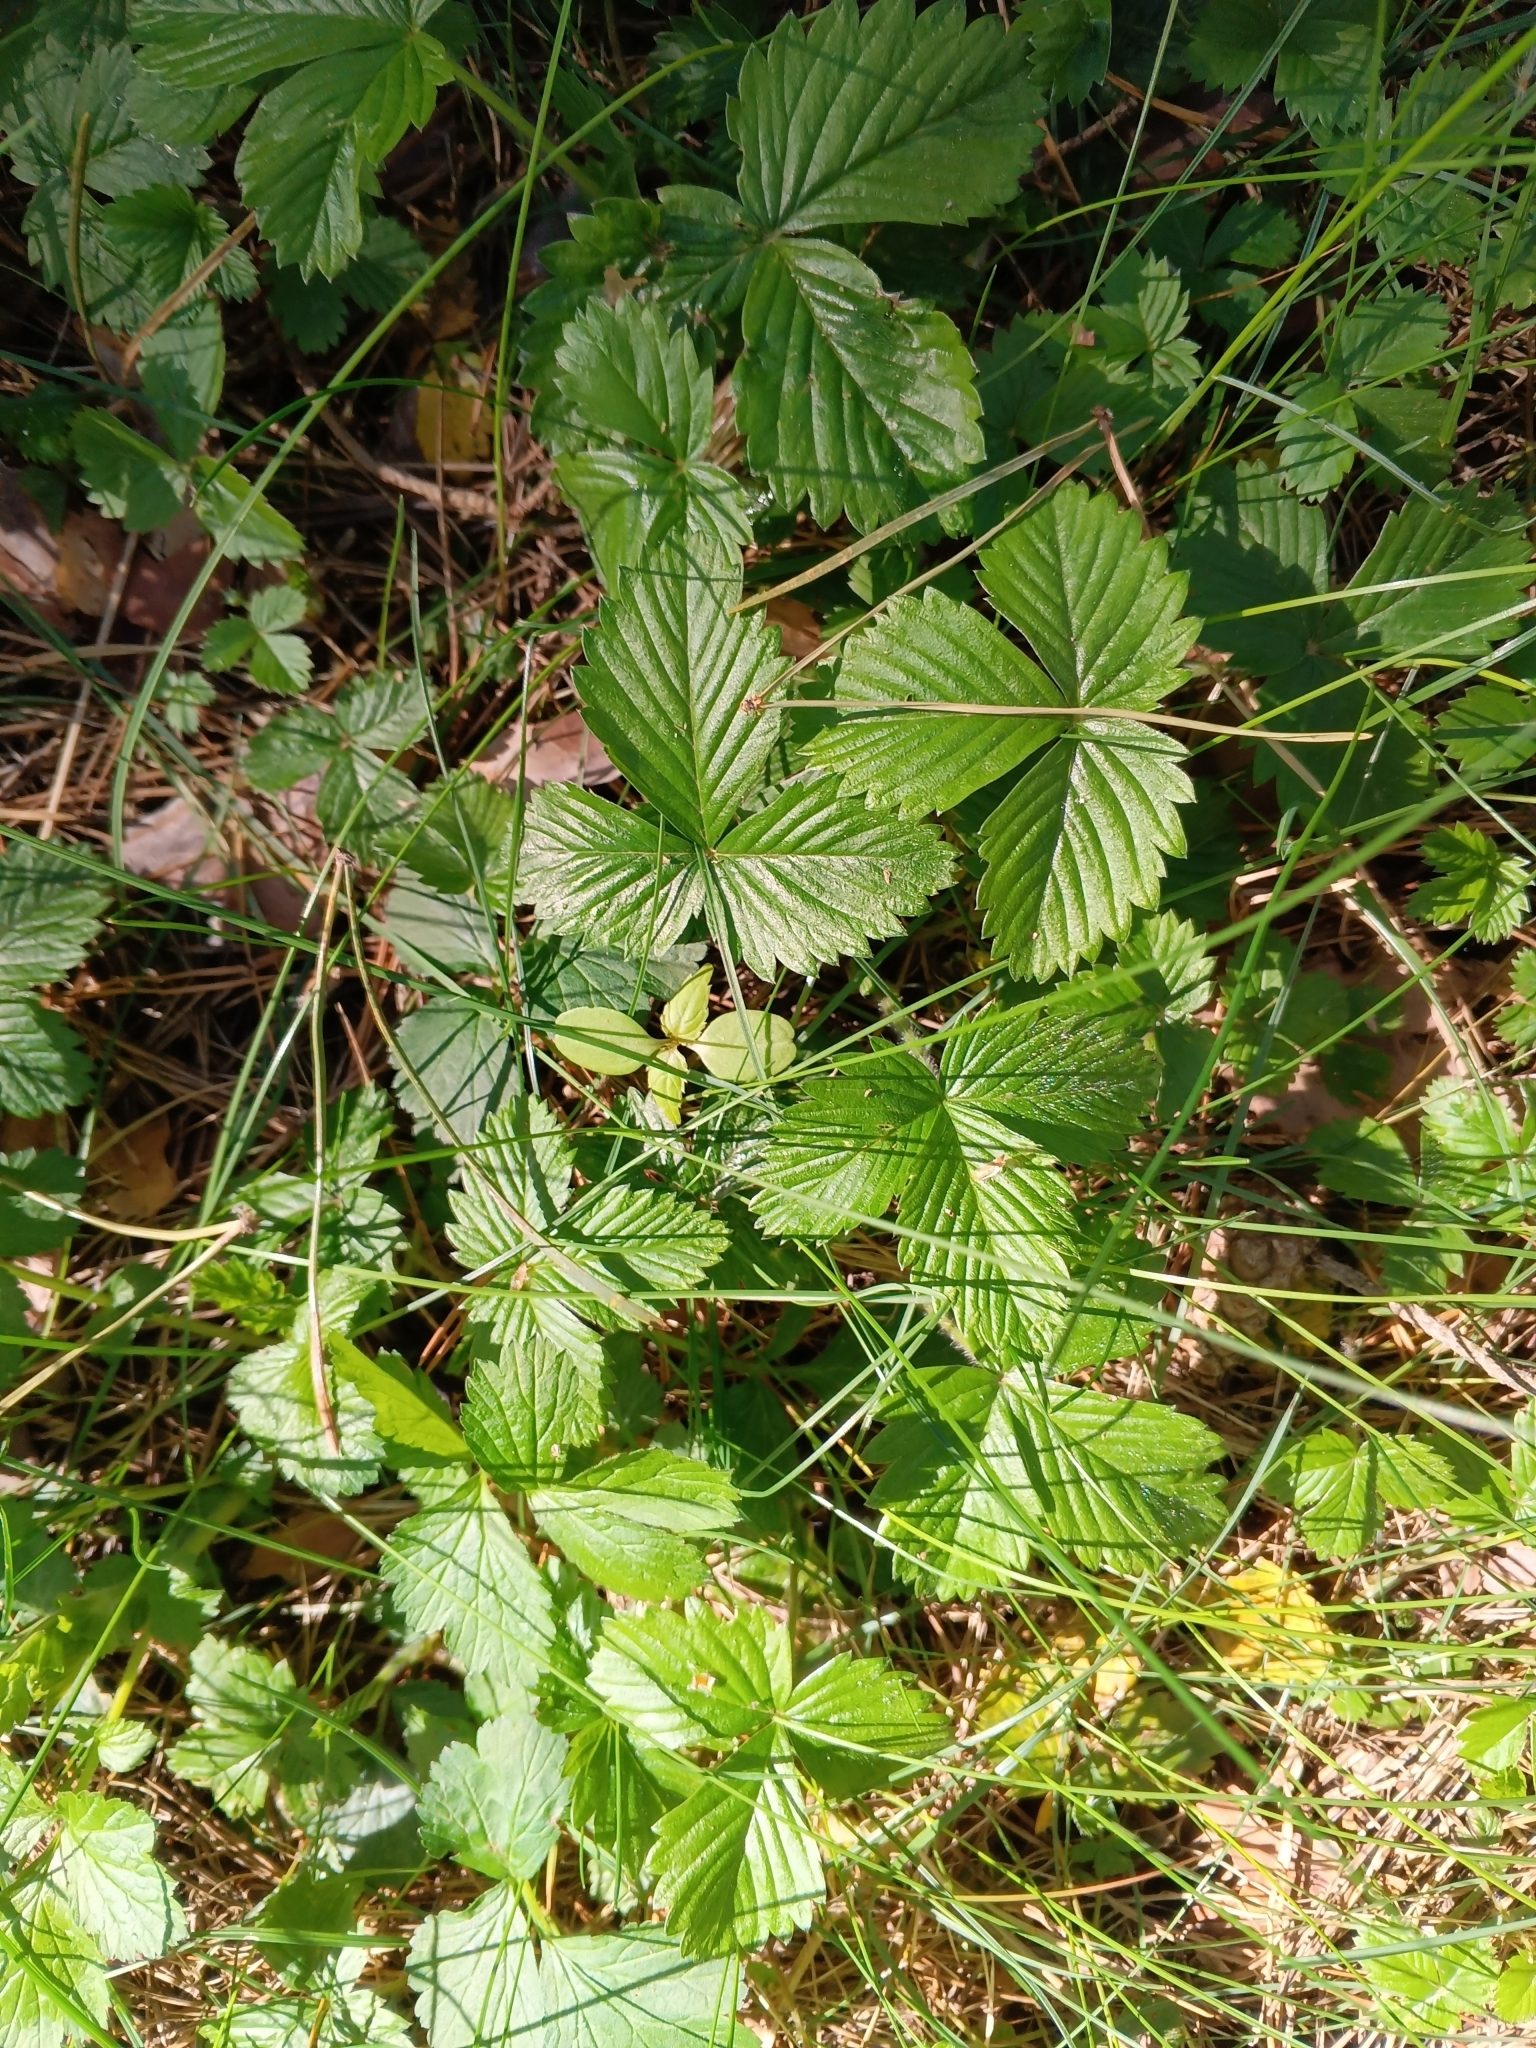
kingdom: Plantae
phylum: Tracheophyta
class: Magnoliopsida
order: Rosales
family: Rosaceae
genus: Fragaria
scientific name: Fragaria vesca
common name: Wild strawberry
